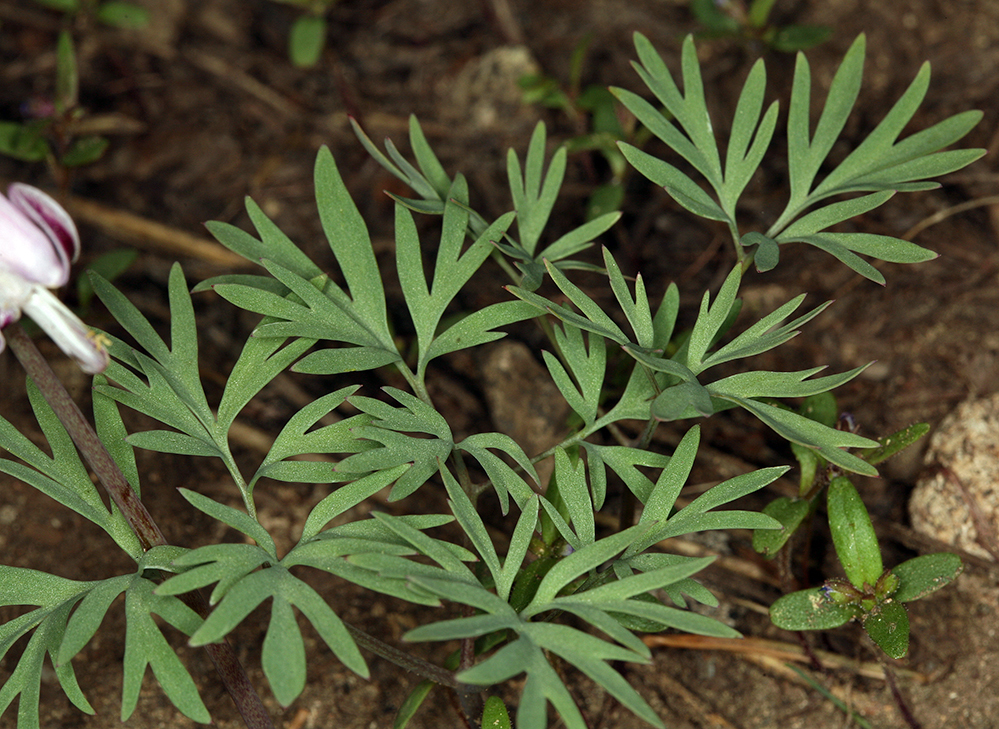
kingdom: Plantae
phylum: Tracheophyta
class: Magnoliopsida
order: Ranunculales
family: Papaveraceae
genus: Dicentra
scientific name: Dicentra pauciflora
